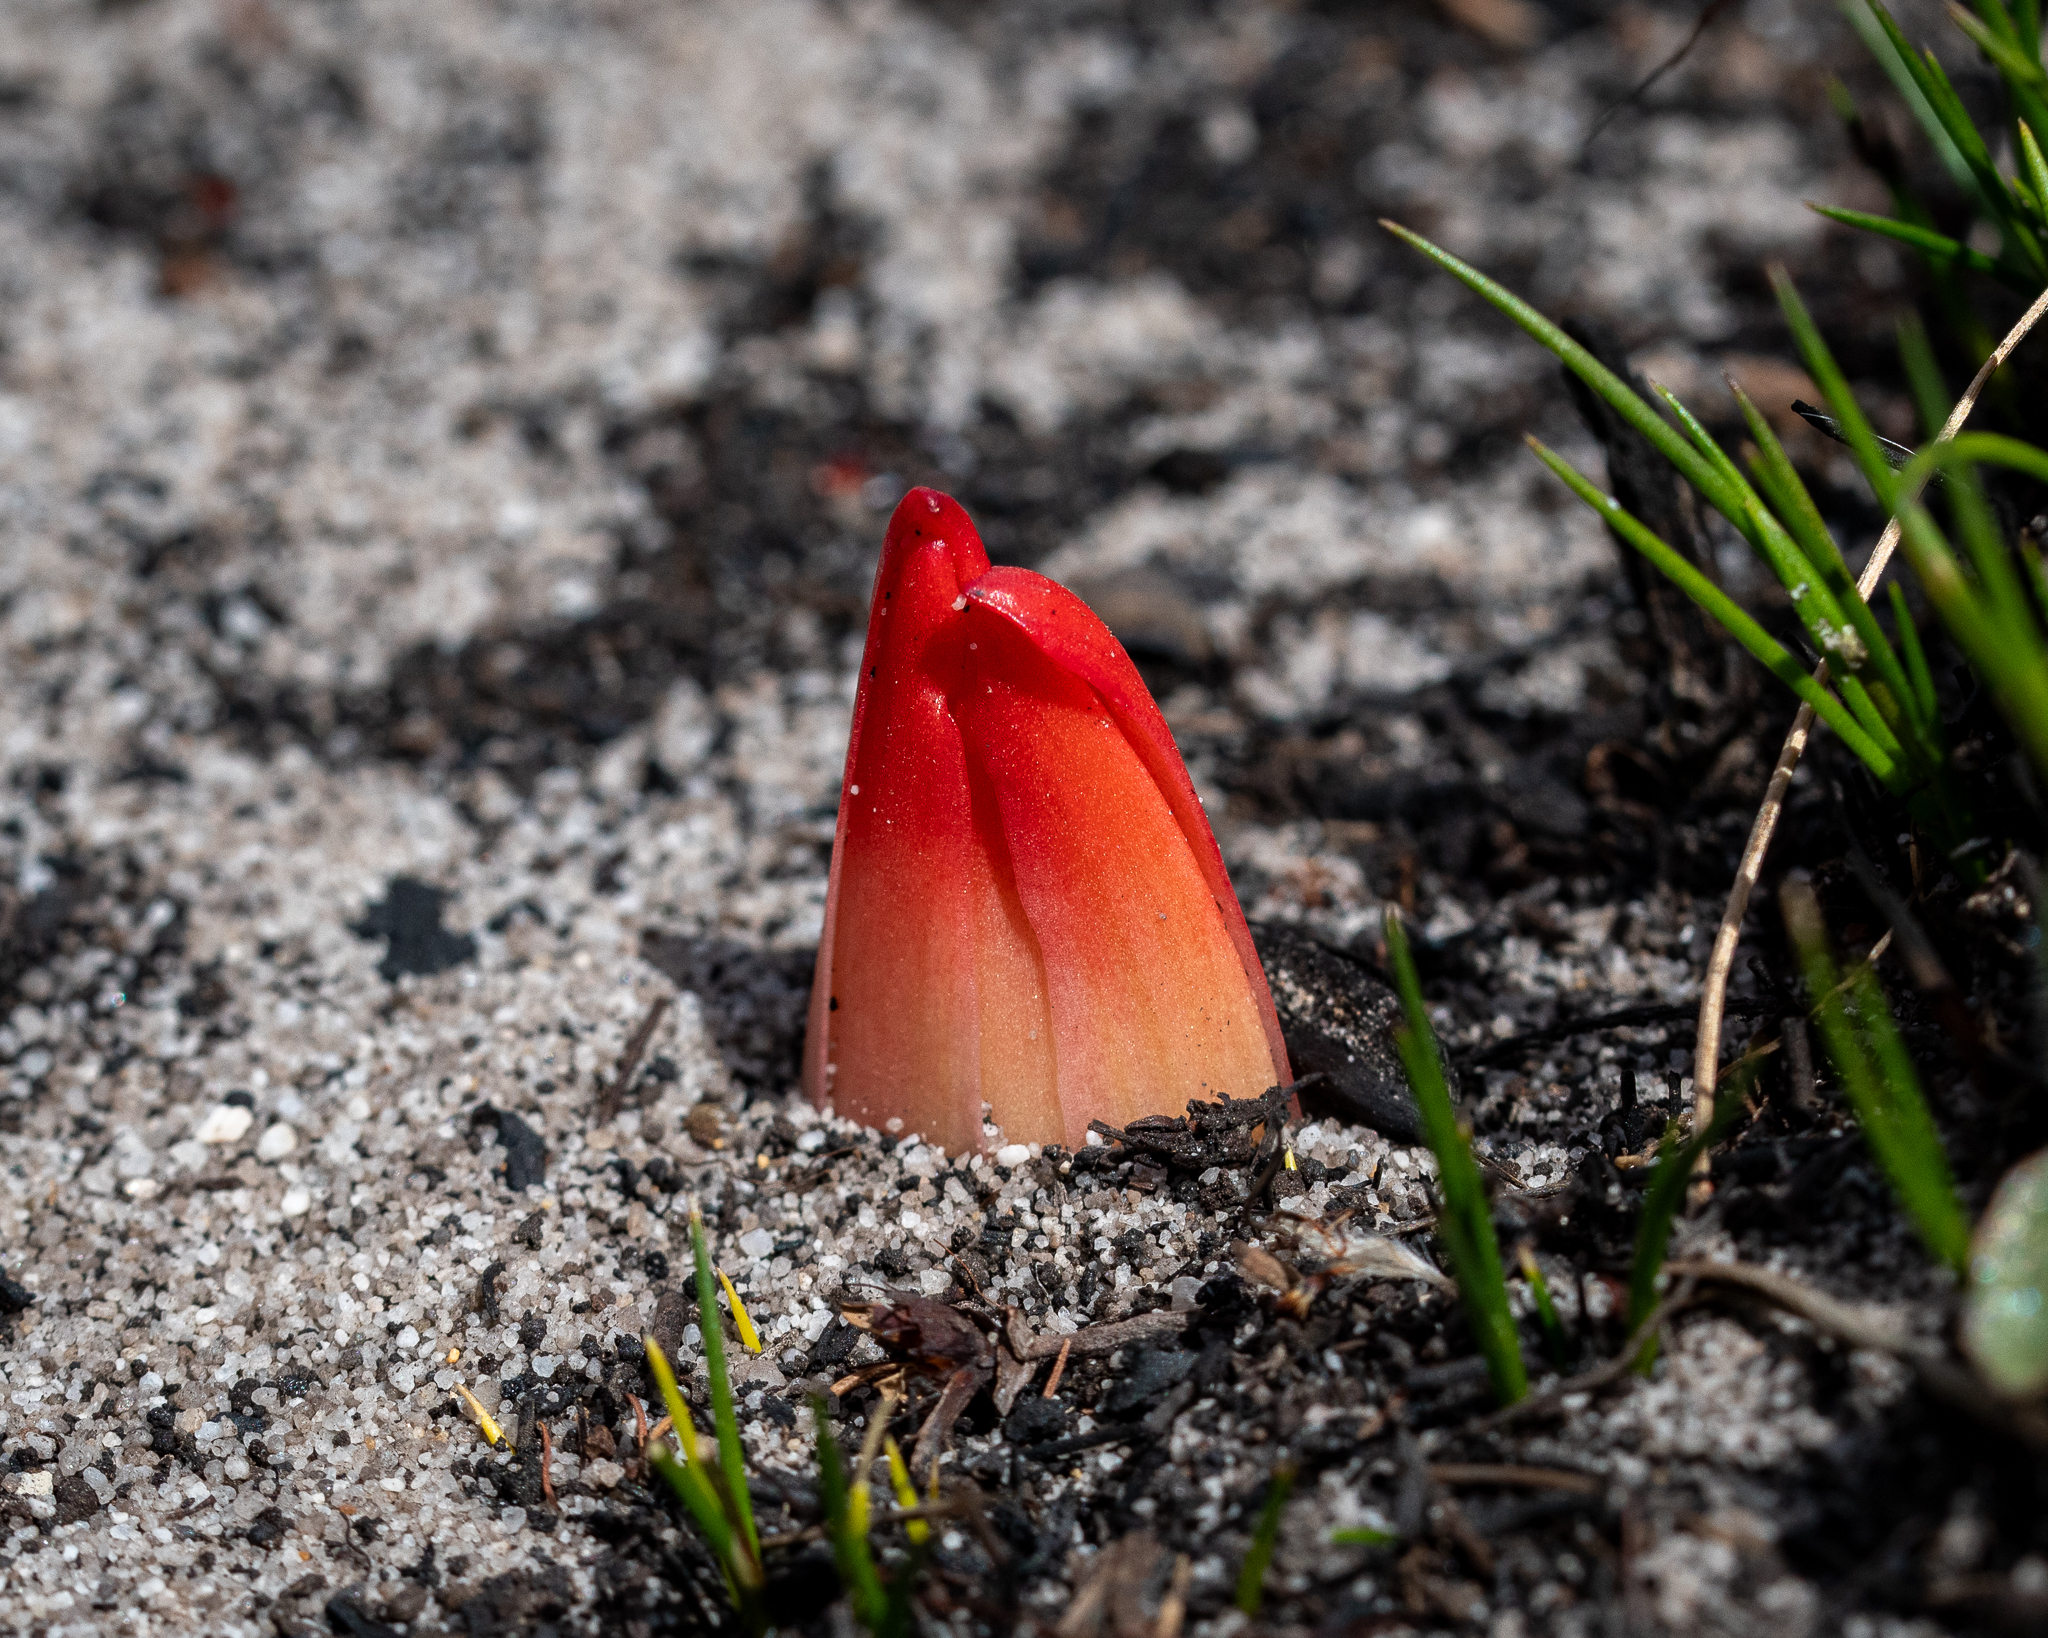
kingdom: Plantae
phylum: Tracheophyta
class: Liliopsida
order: Asparagales
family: Amaryllidaceae
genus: Haemanthus
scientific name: Haemanthus canaliculatus
